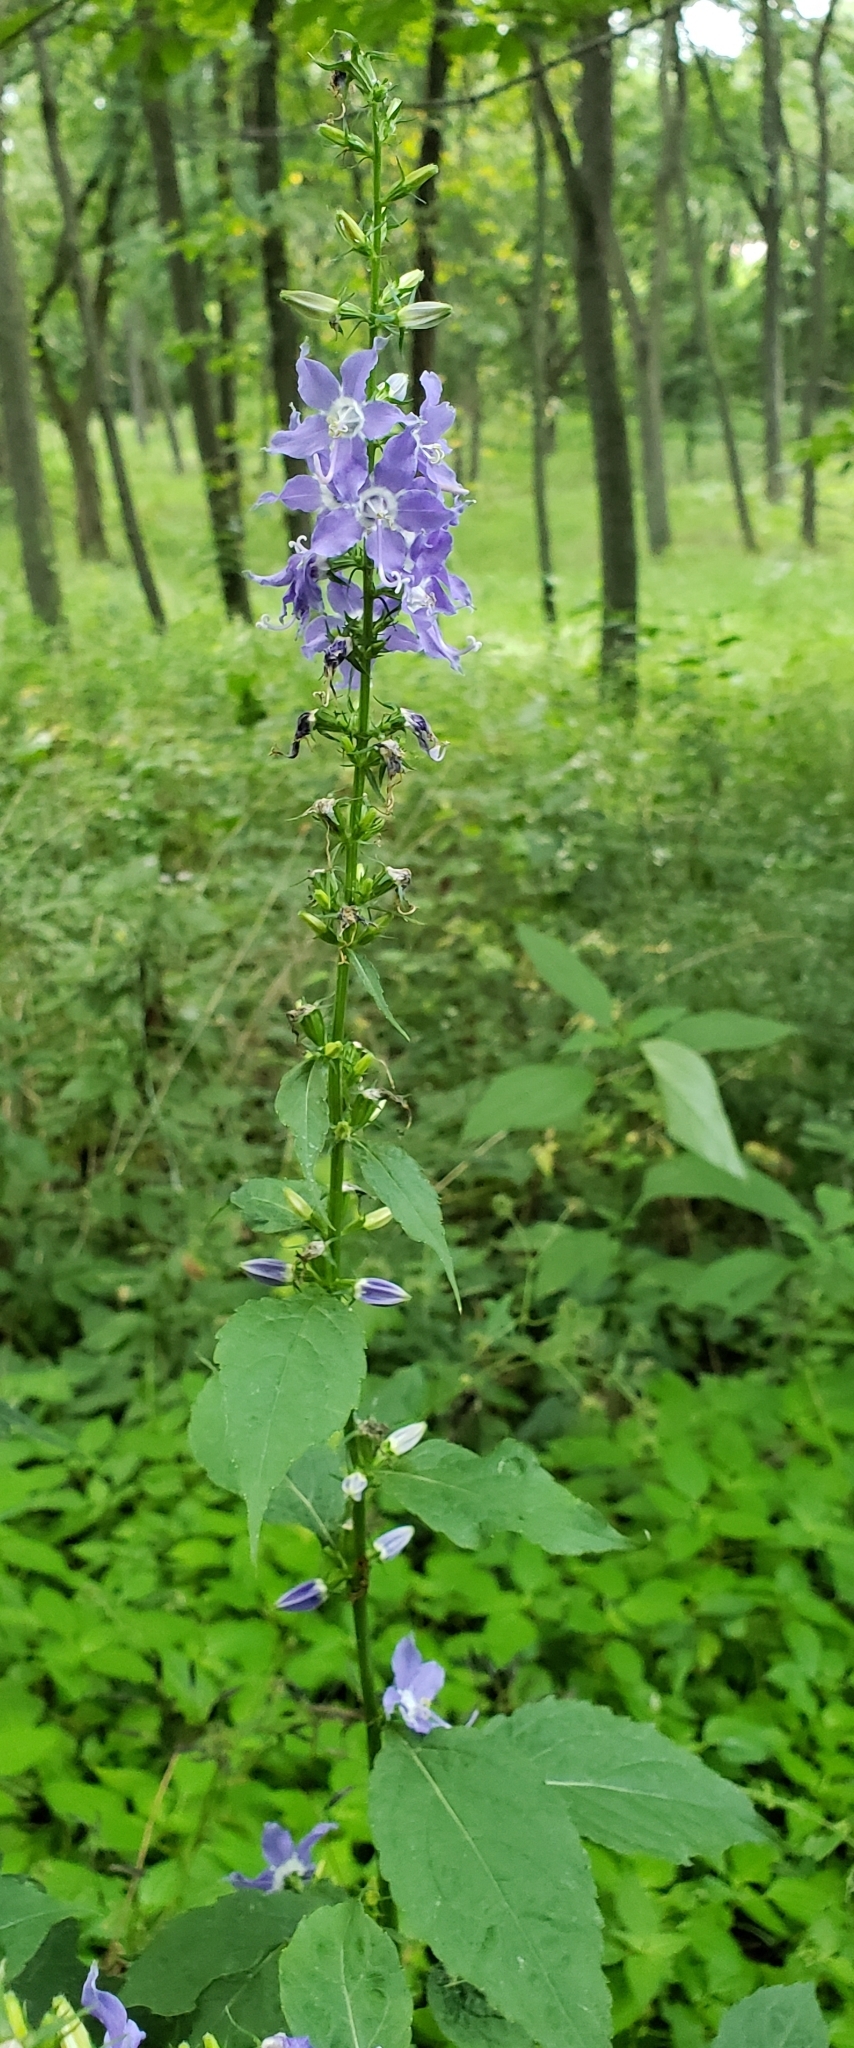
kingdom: Plantae
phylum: Tracheophyta
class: Magnoliopsida
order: Asterales
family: Campanulaceae
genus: Campanulastrum
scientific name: Campanulastrum americanum
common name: American bellflower
